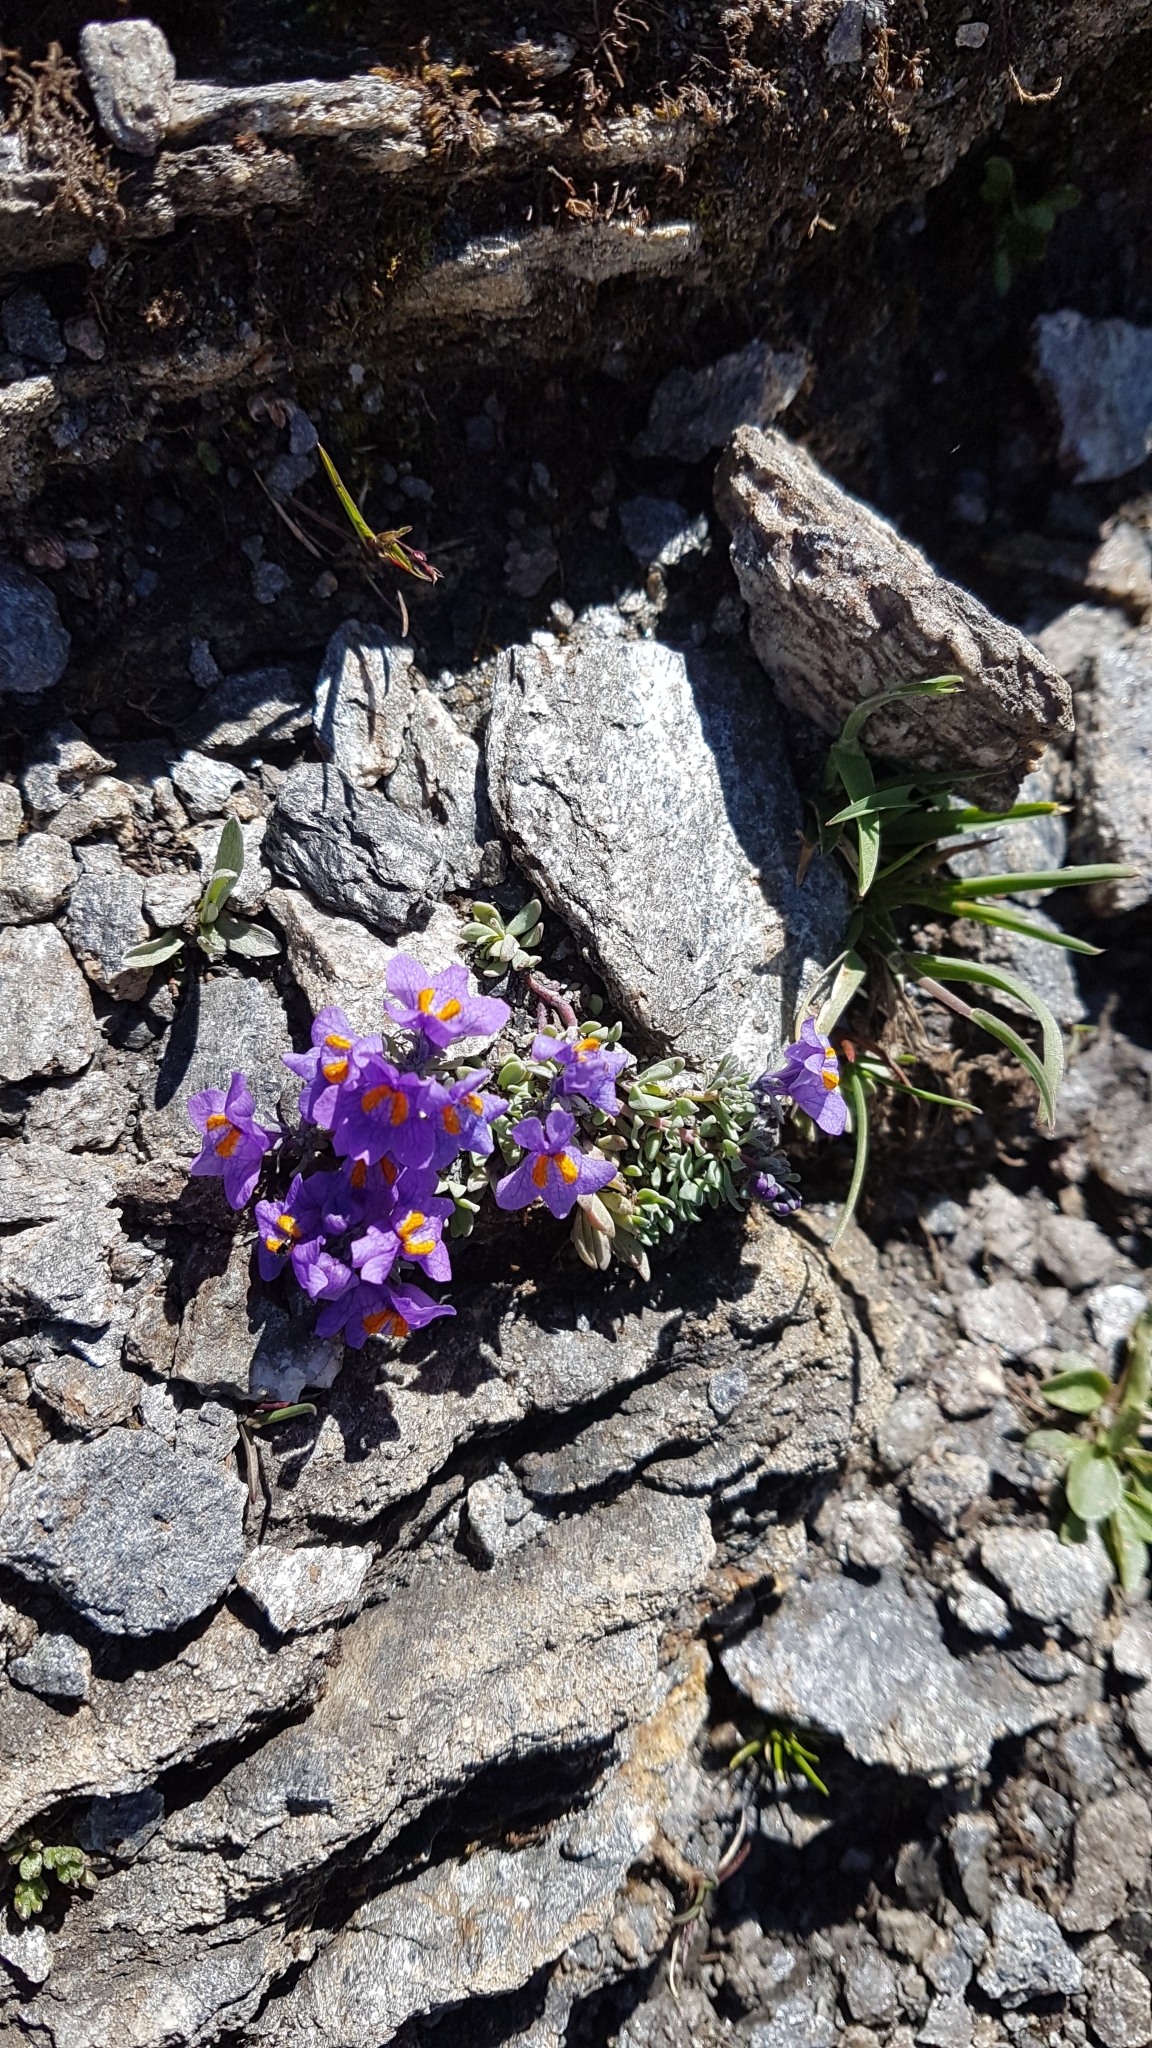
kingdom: Plantae
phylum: Tracheophyta
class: Magnoliopsida
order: Lamiales
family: Plantaginaceae
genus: Linaria
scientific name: Linaria alpina
